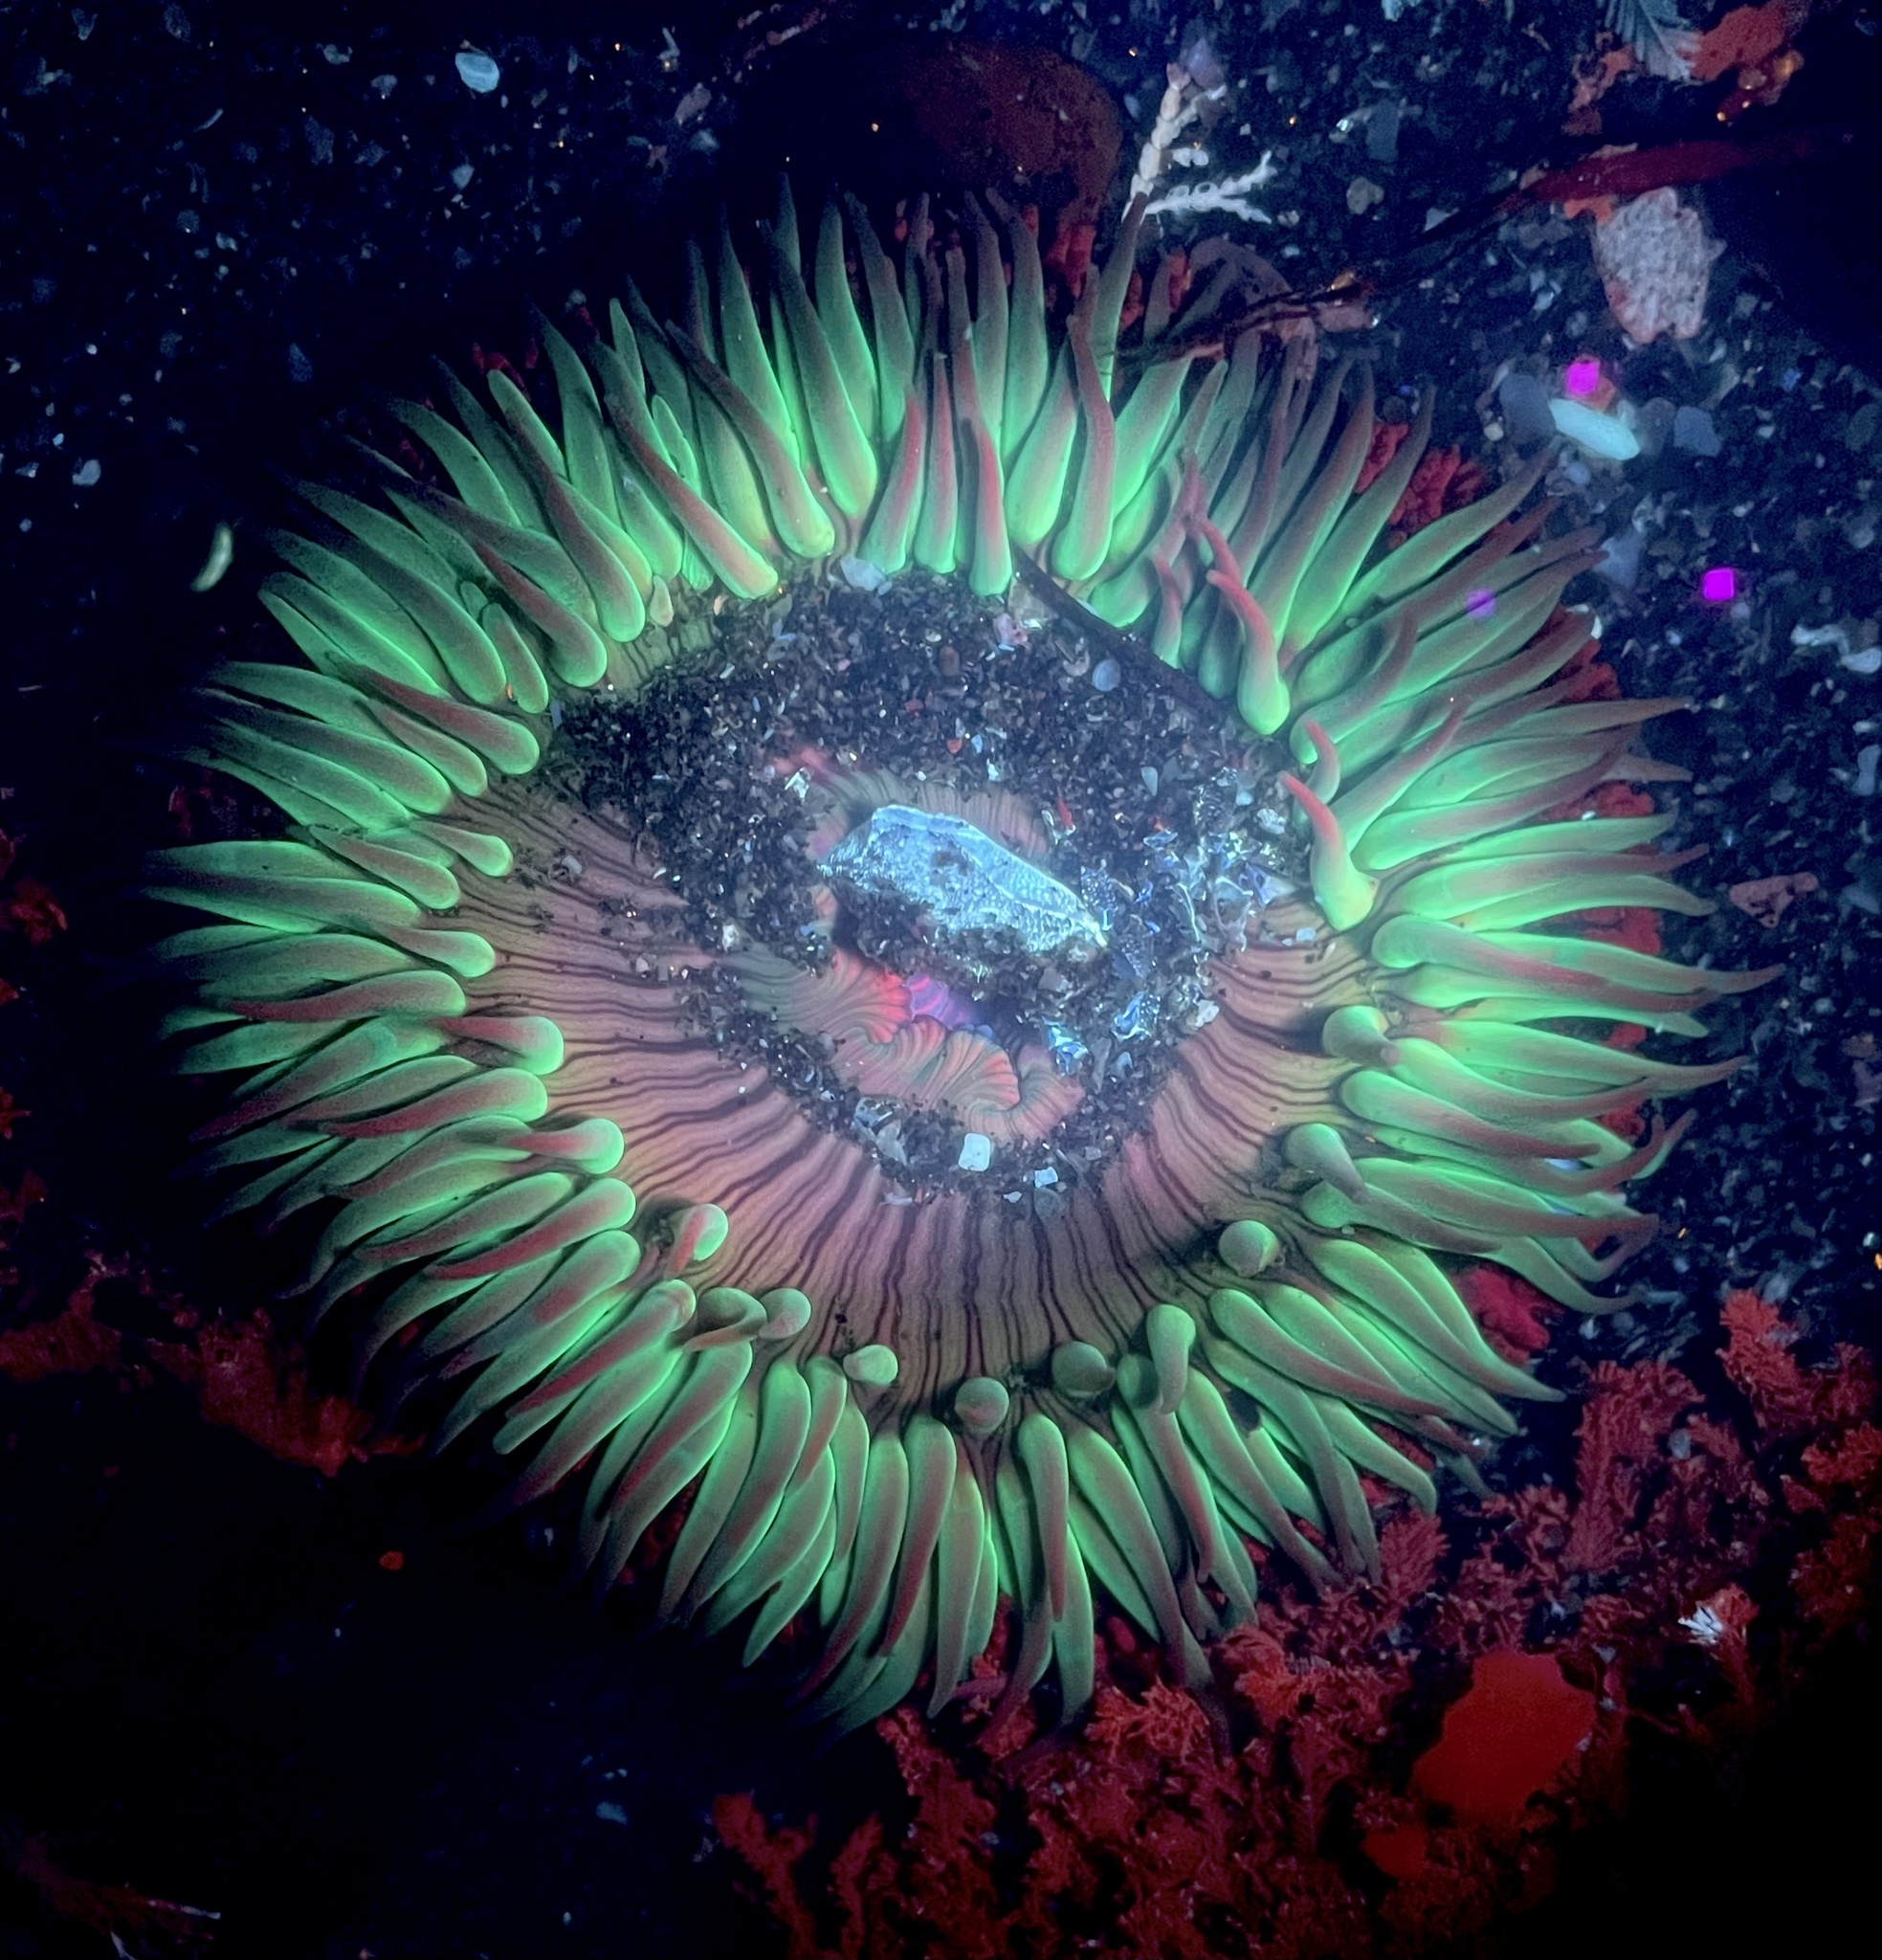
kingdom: Animalia
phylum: Cnidaria
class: Anthozoa
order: Actiniaria
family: Actiniidae
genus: Anthopleura
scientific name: Anthopleura sola
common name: Sun anemone
